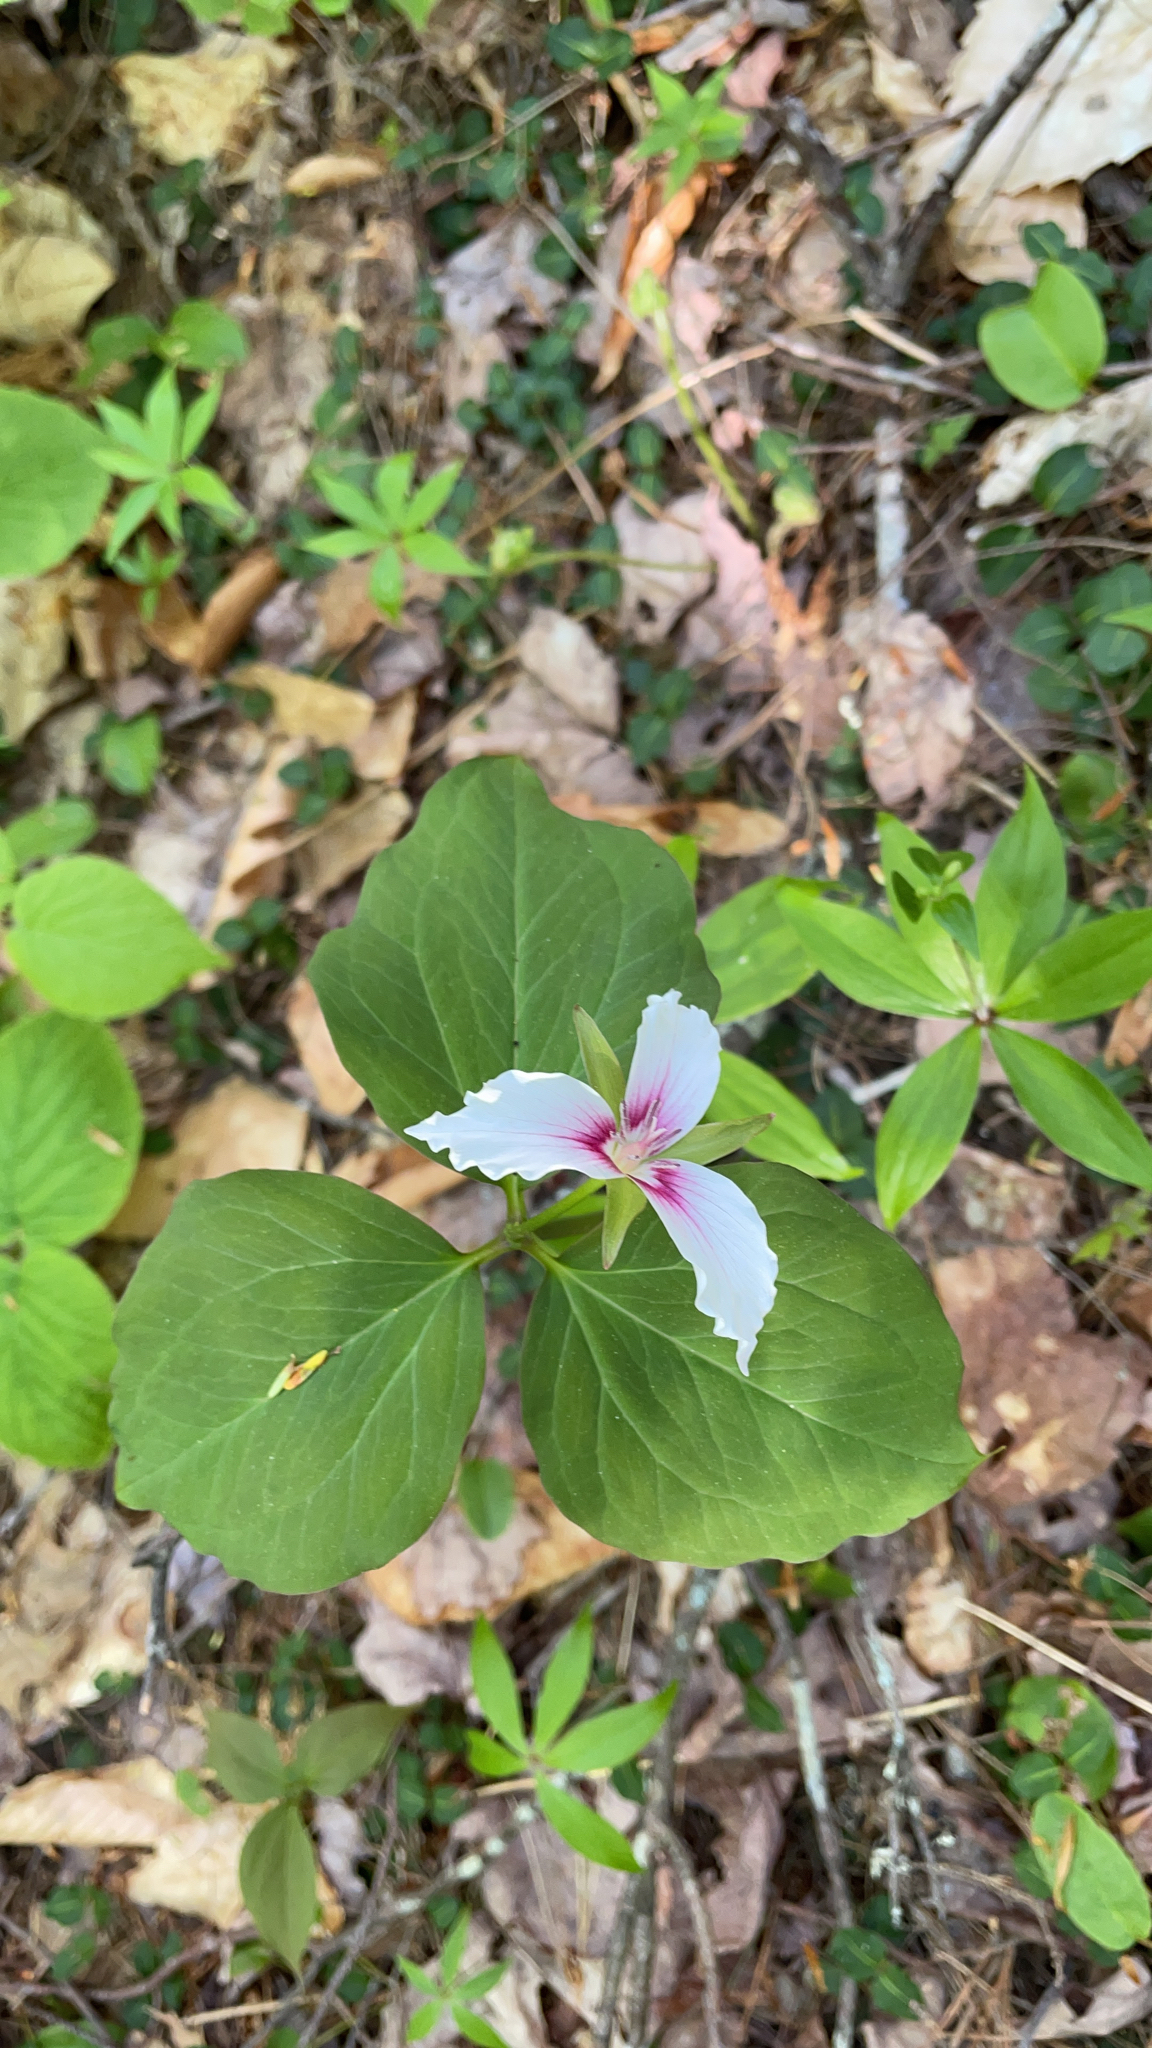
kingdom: Plantae
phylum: Tracheophyta
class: Liliopsida
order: Liliales
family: Melanthiaceae
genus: Trillium
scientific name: Trillium undulatum
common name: Paint trillium
